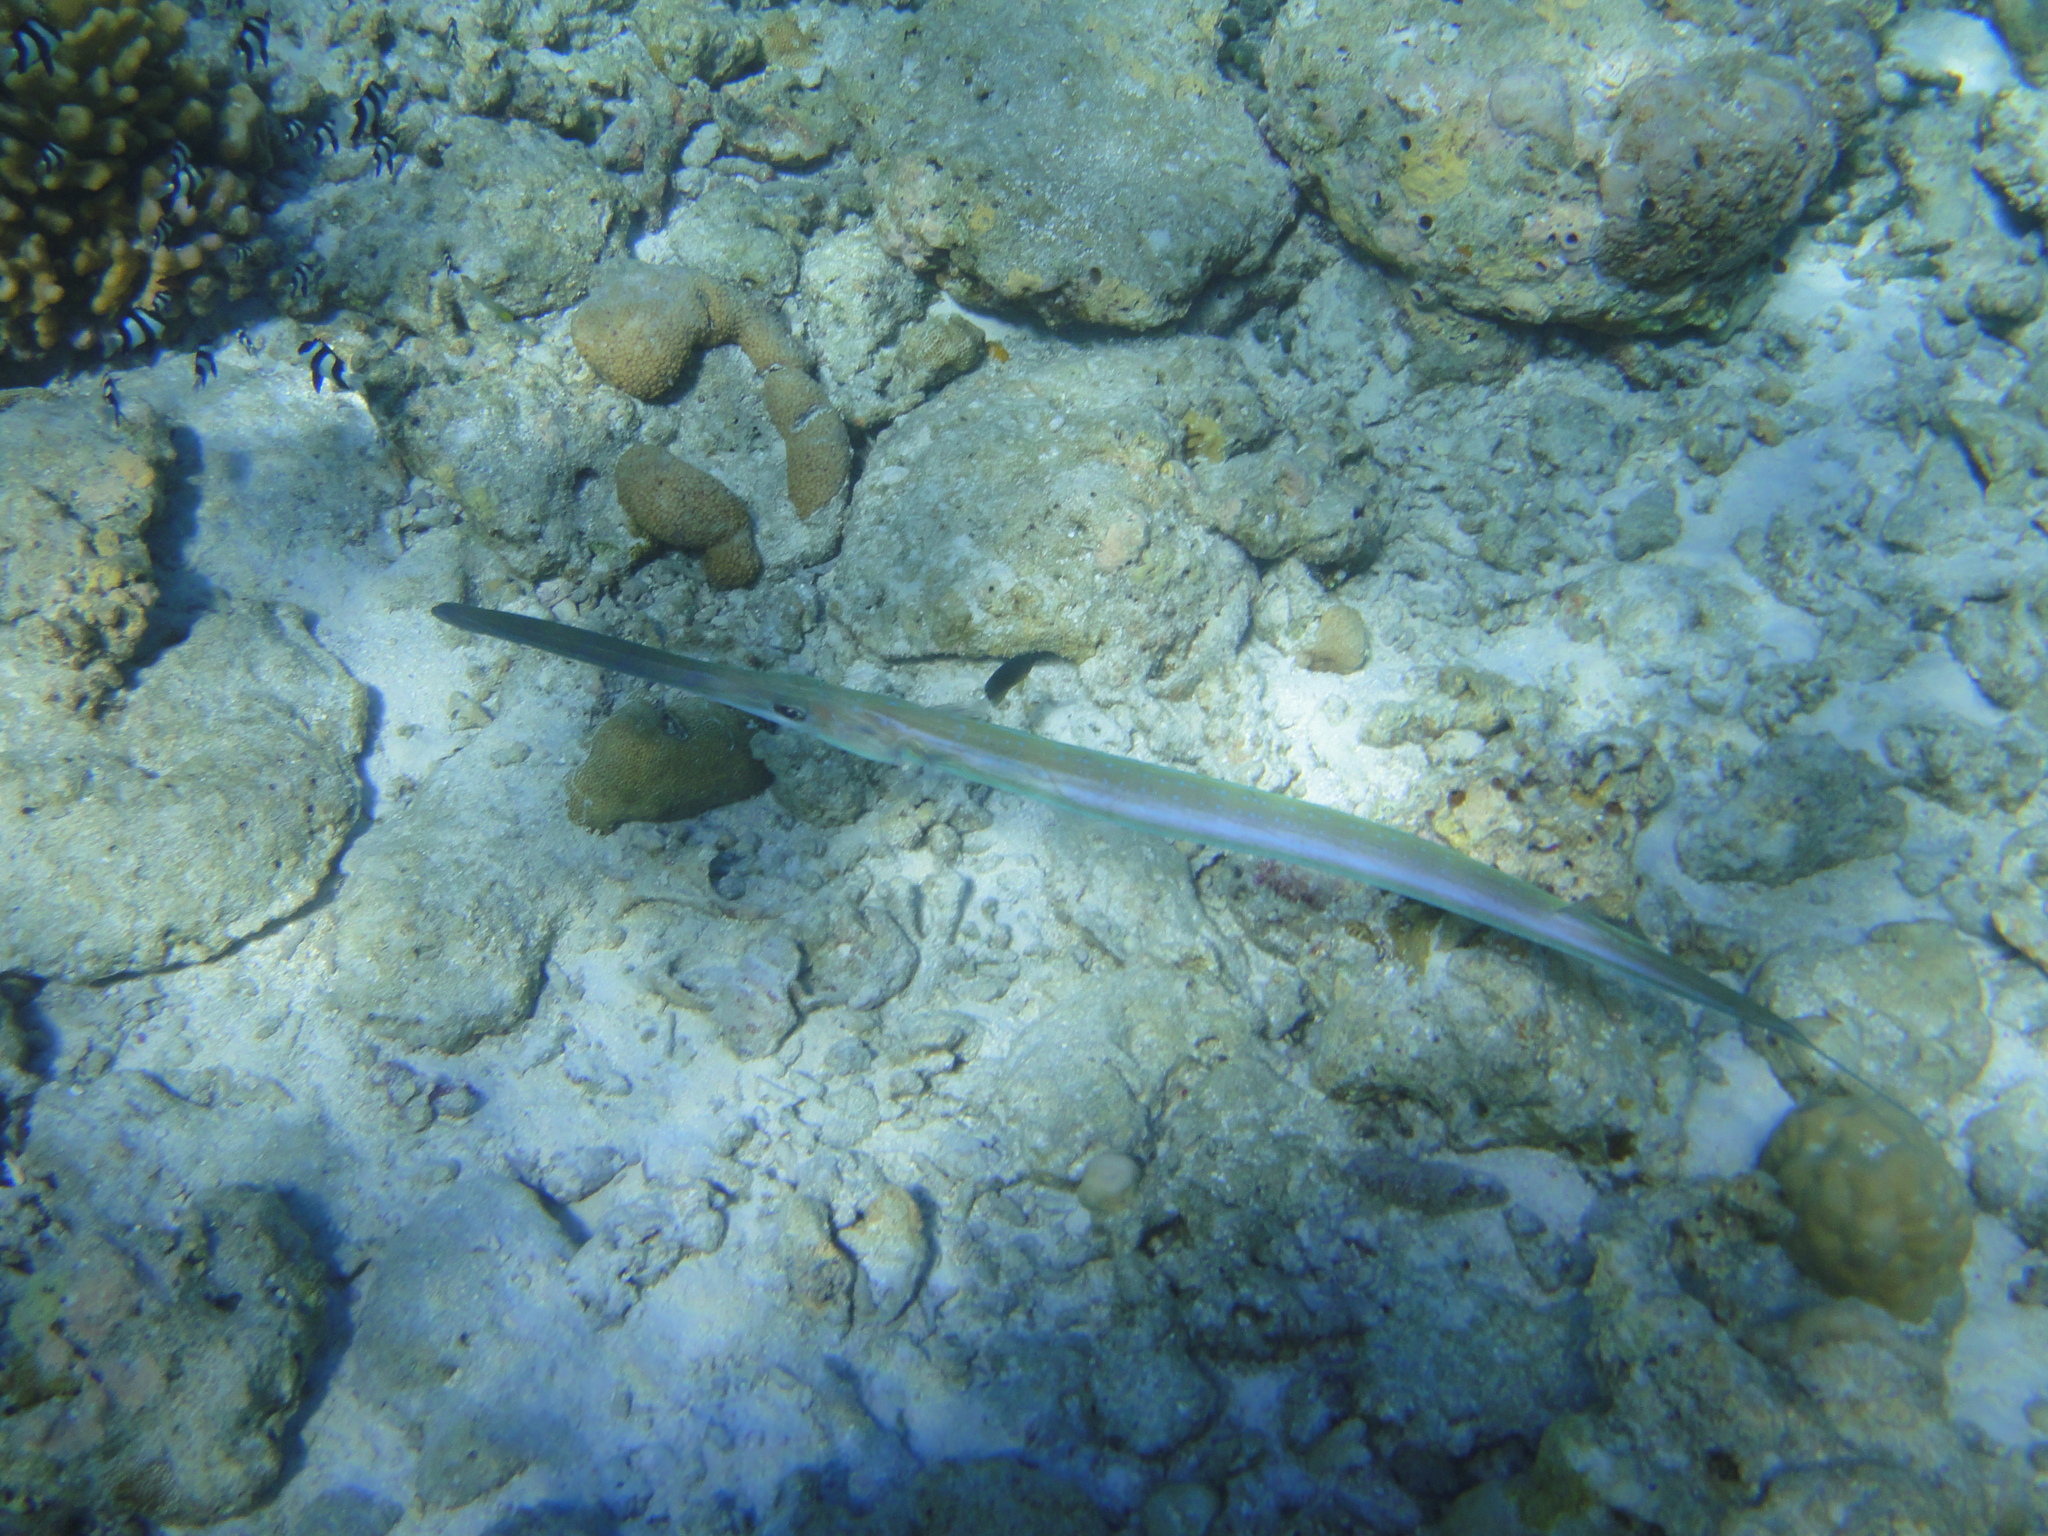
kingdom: Animalia
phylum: Chordata
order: Syngnathiformes
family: Fistulariidae
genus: Fistularia
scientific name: Fistularia commersonii
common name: Bluespotted cornetfish
